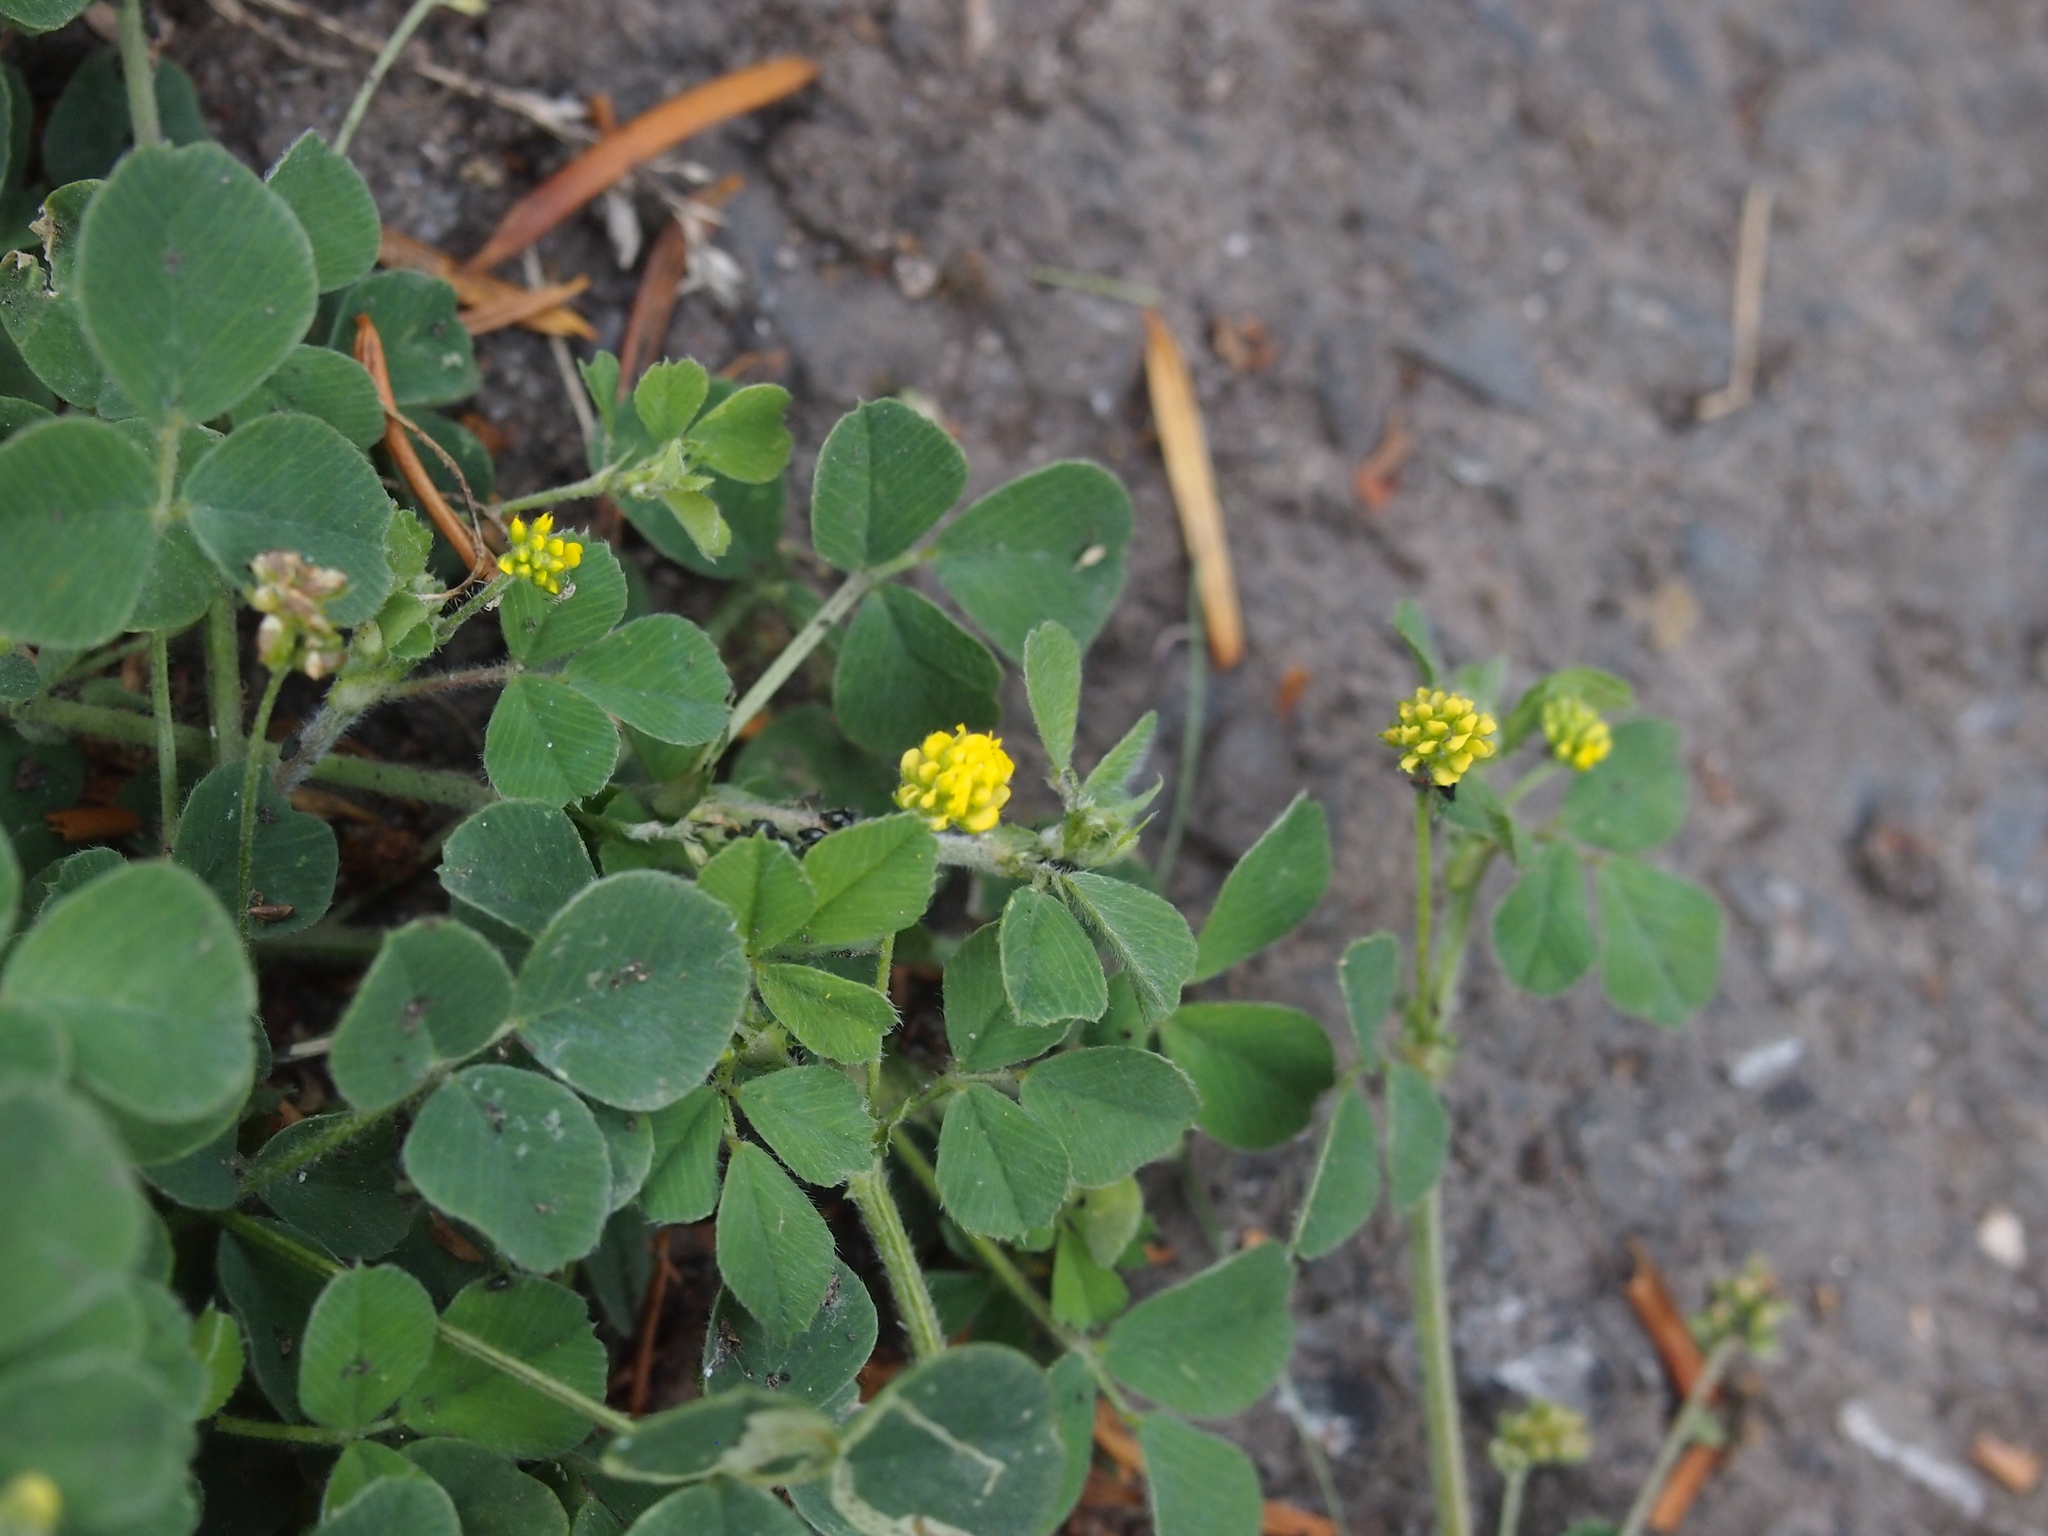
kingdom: Plantae
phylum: Tracheophyta
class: Magnoliopsida
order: Fabales
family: Fabaceae
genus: Medicago
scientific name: Medicago lupulina
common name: Black medick
